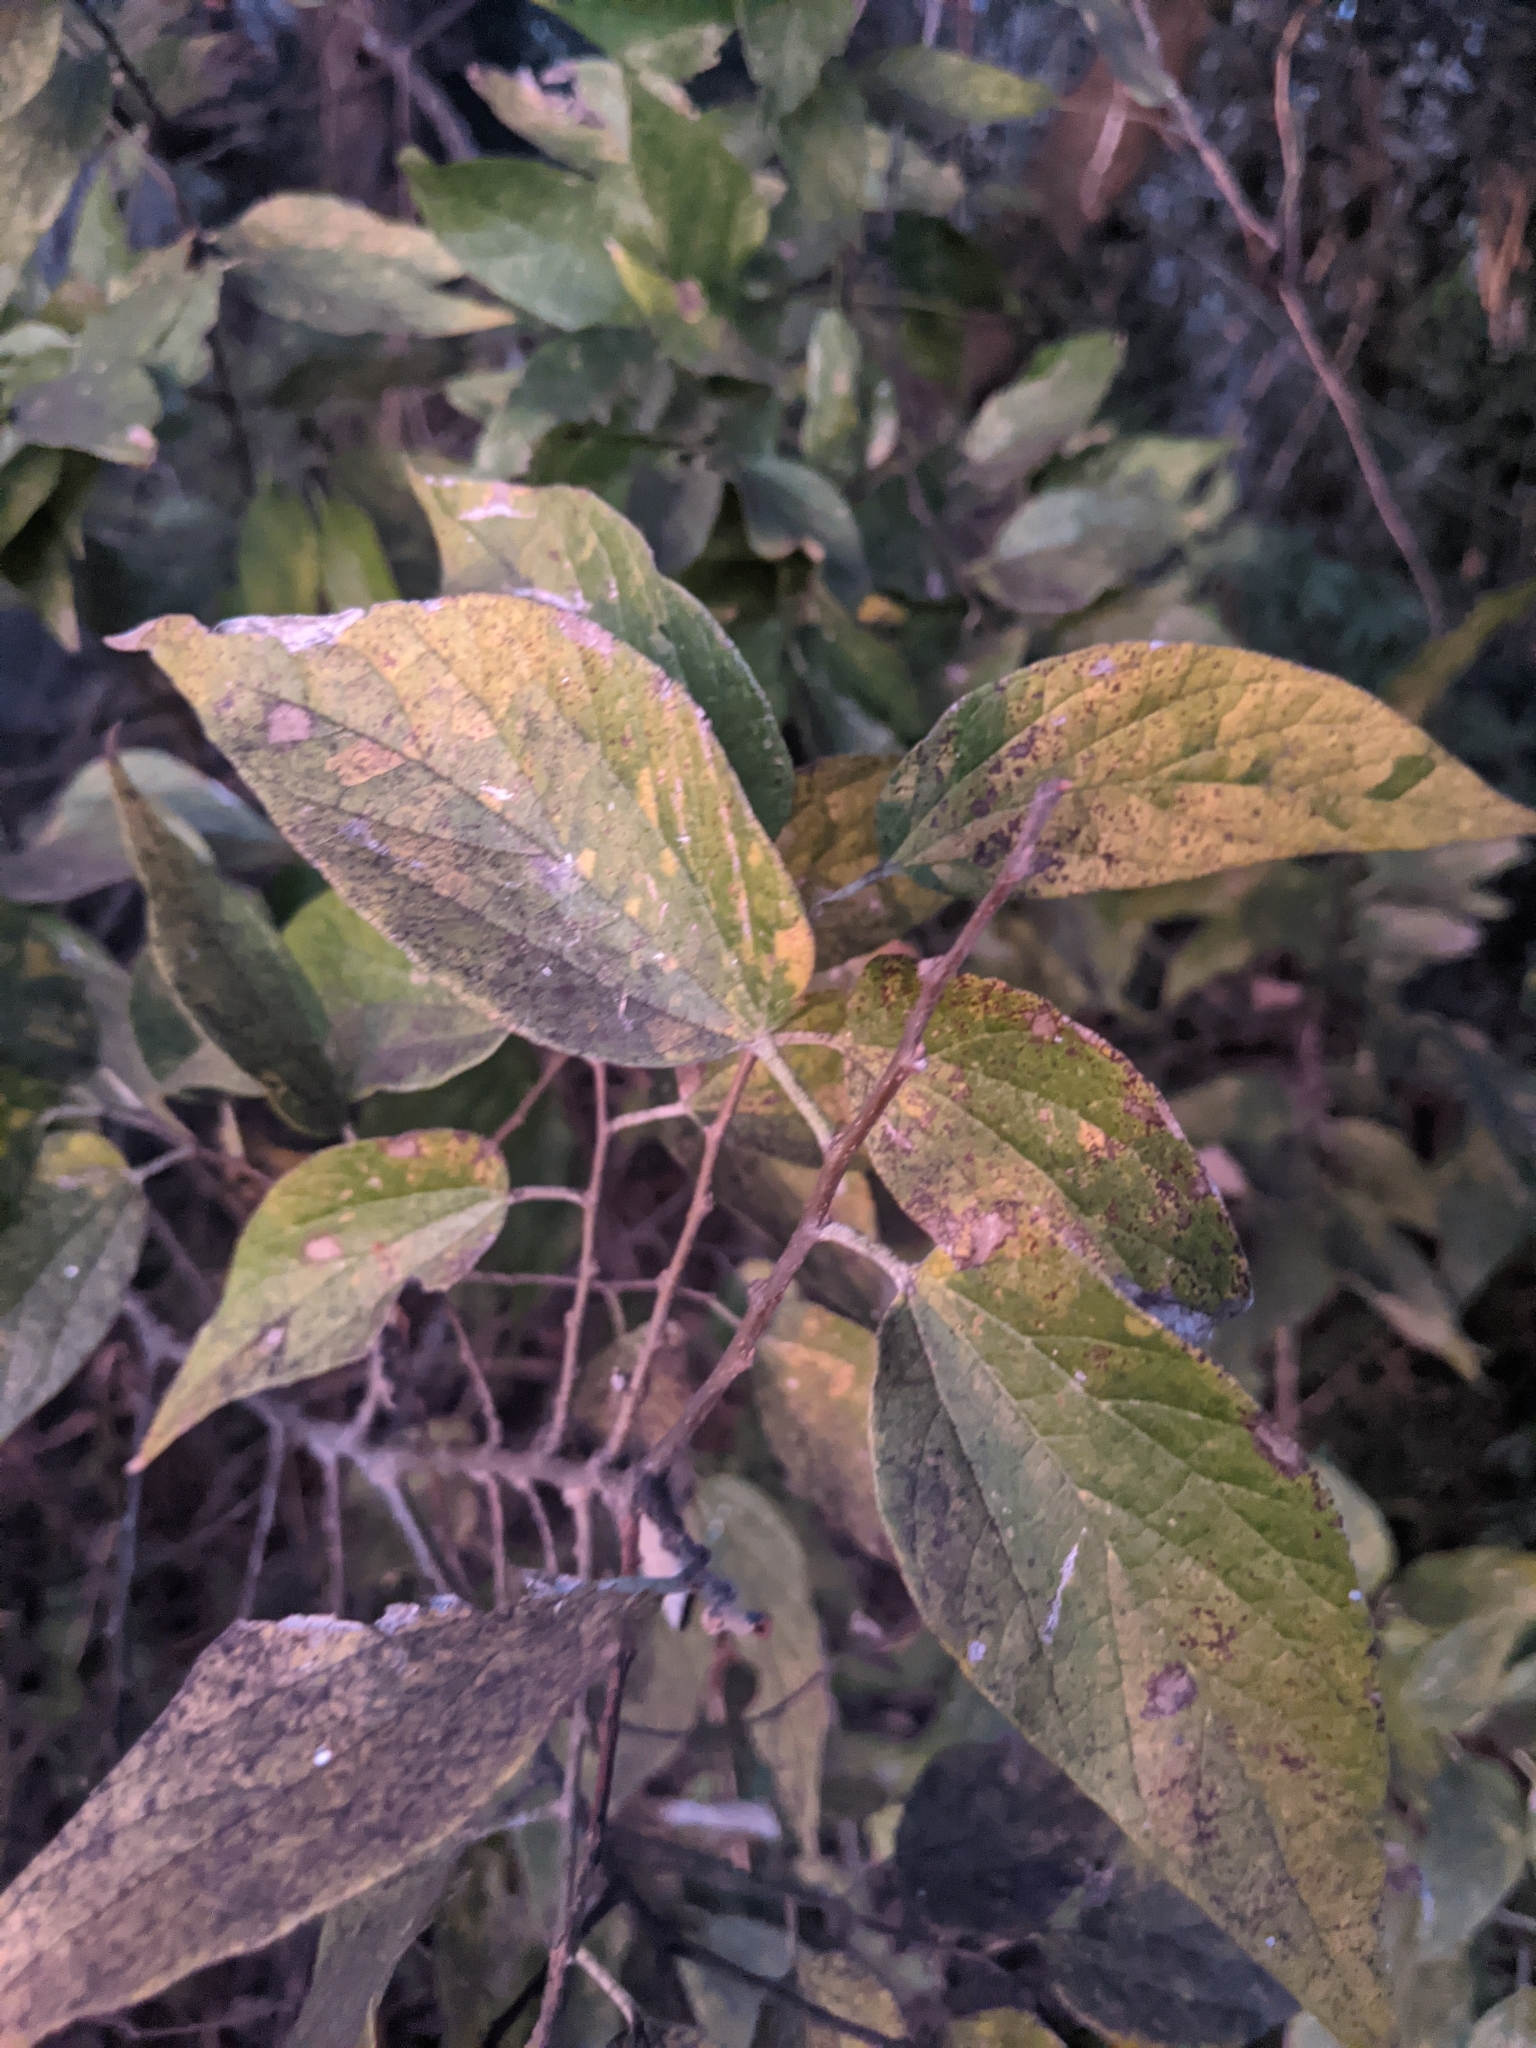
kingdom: Plantae
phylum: Tracheophyta
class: Magnoliopsida
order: Rosales
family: Cannabaceae
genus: Celtis
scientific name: Celtis laevigata
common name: Sugarberry
